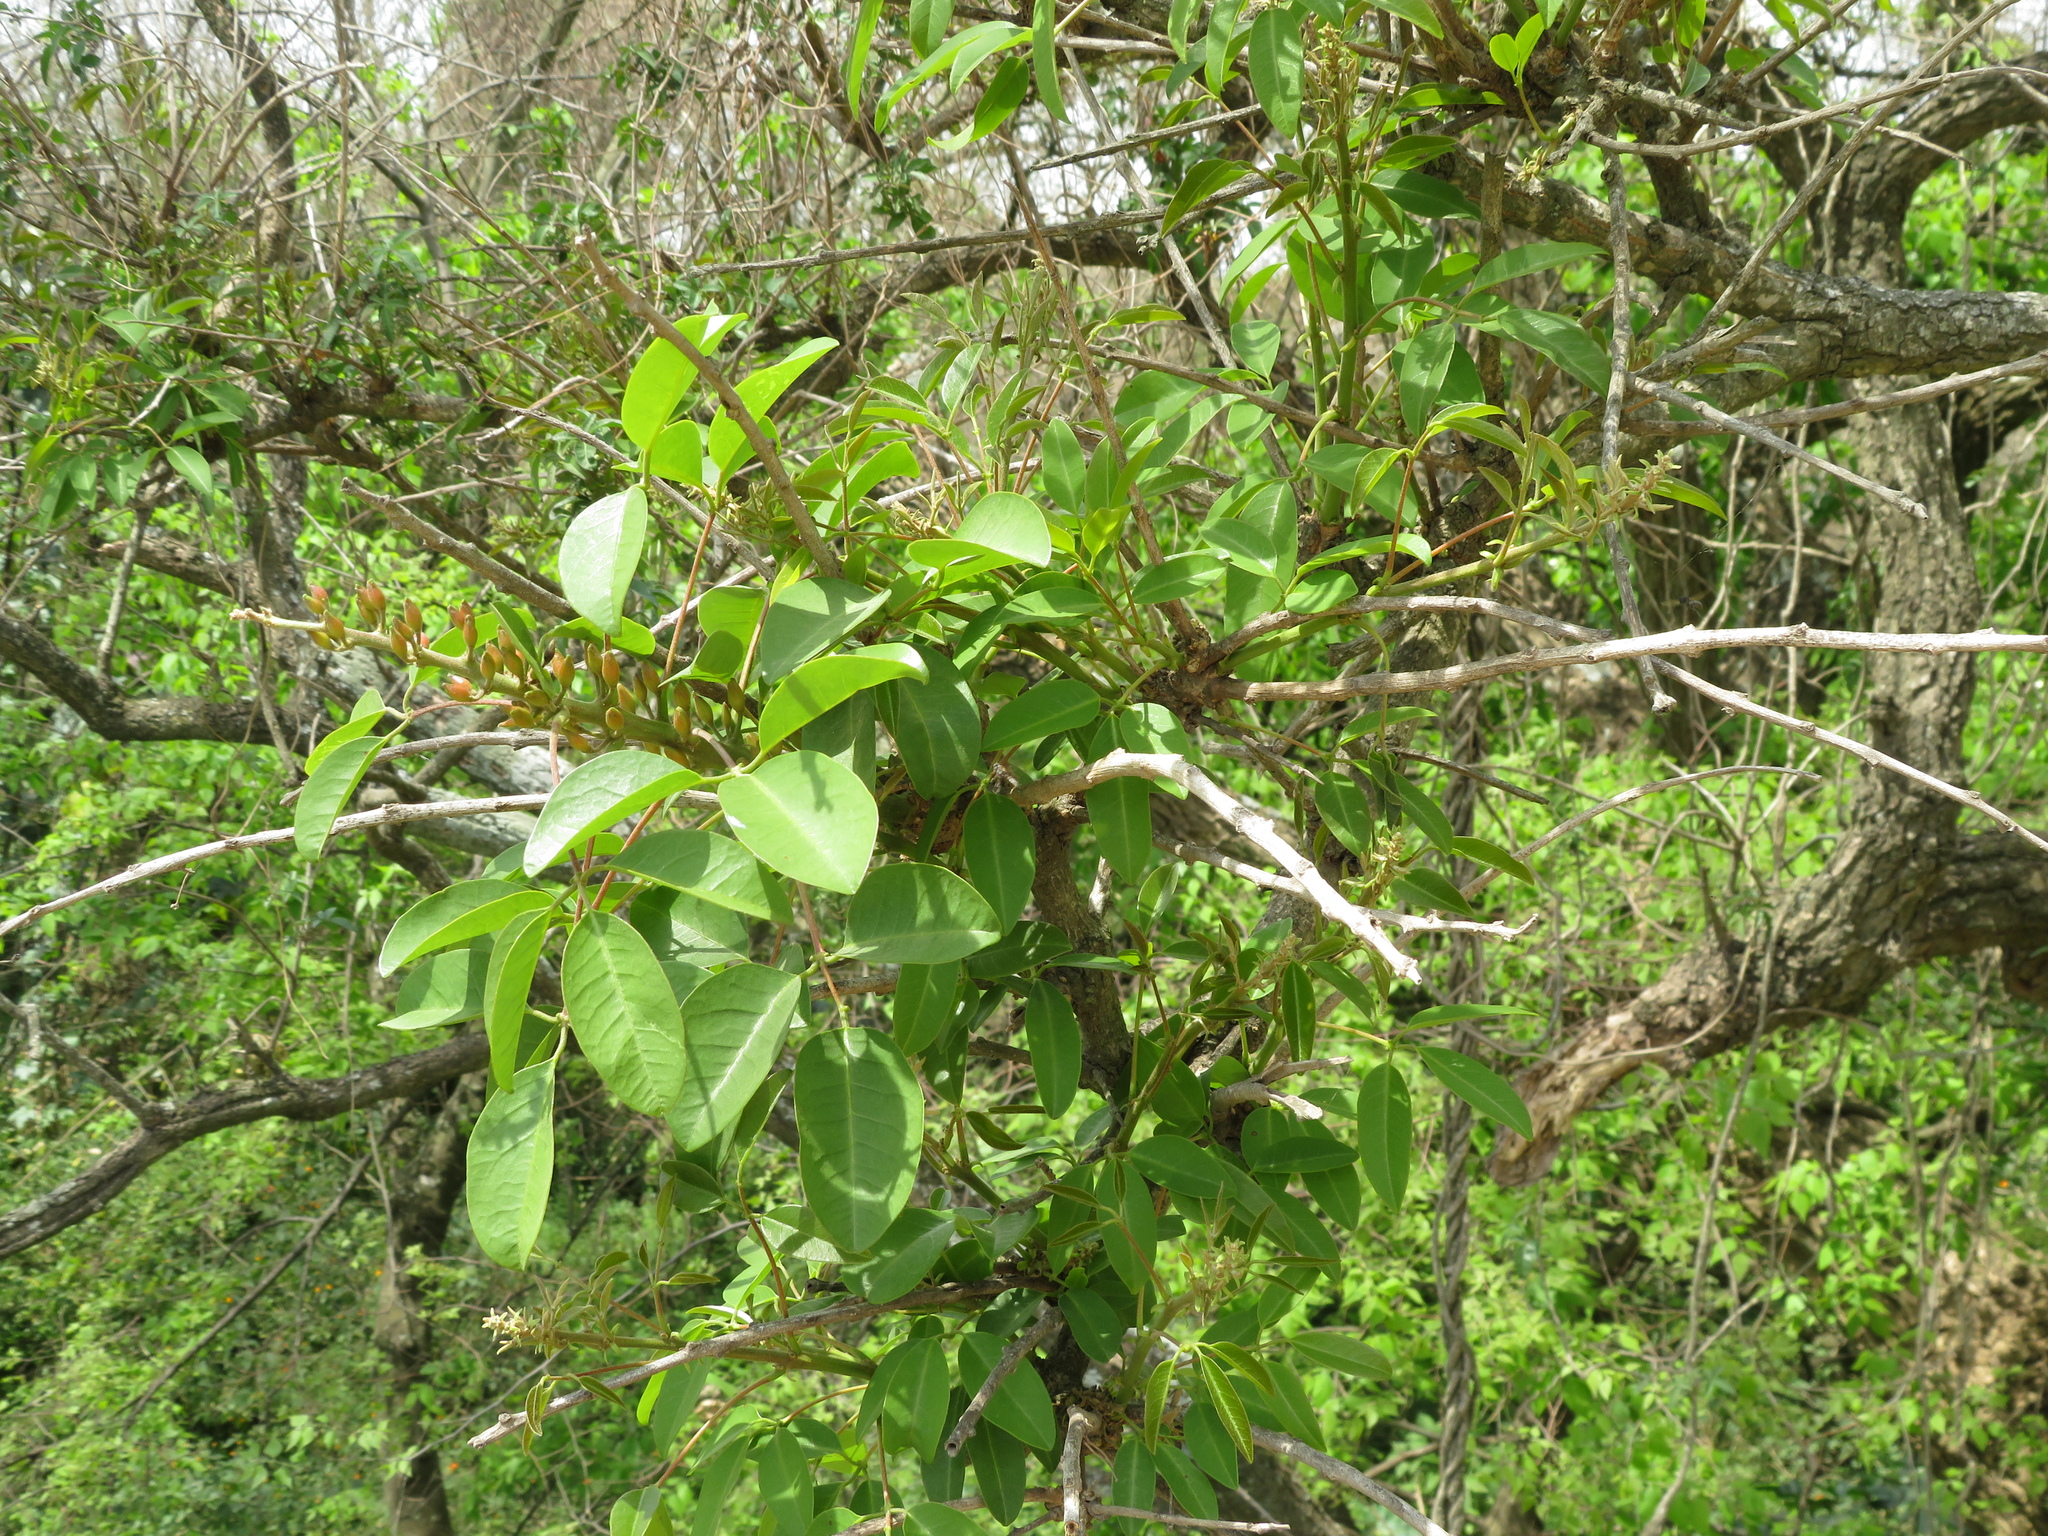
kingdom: Plantae
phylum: Tracheophyta
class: Magnoliopsida
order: Fabales
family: Fabaceae
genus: Erythrina
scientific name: Erythrina crista-galli
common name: Cockspur coral tree
